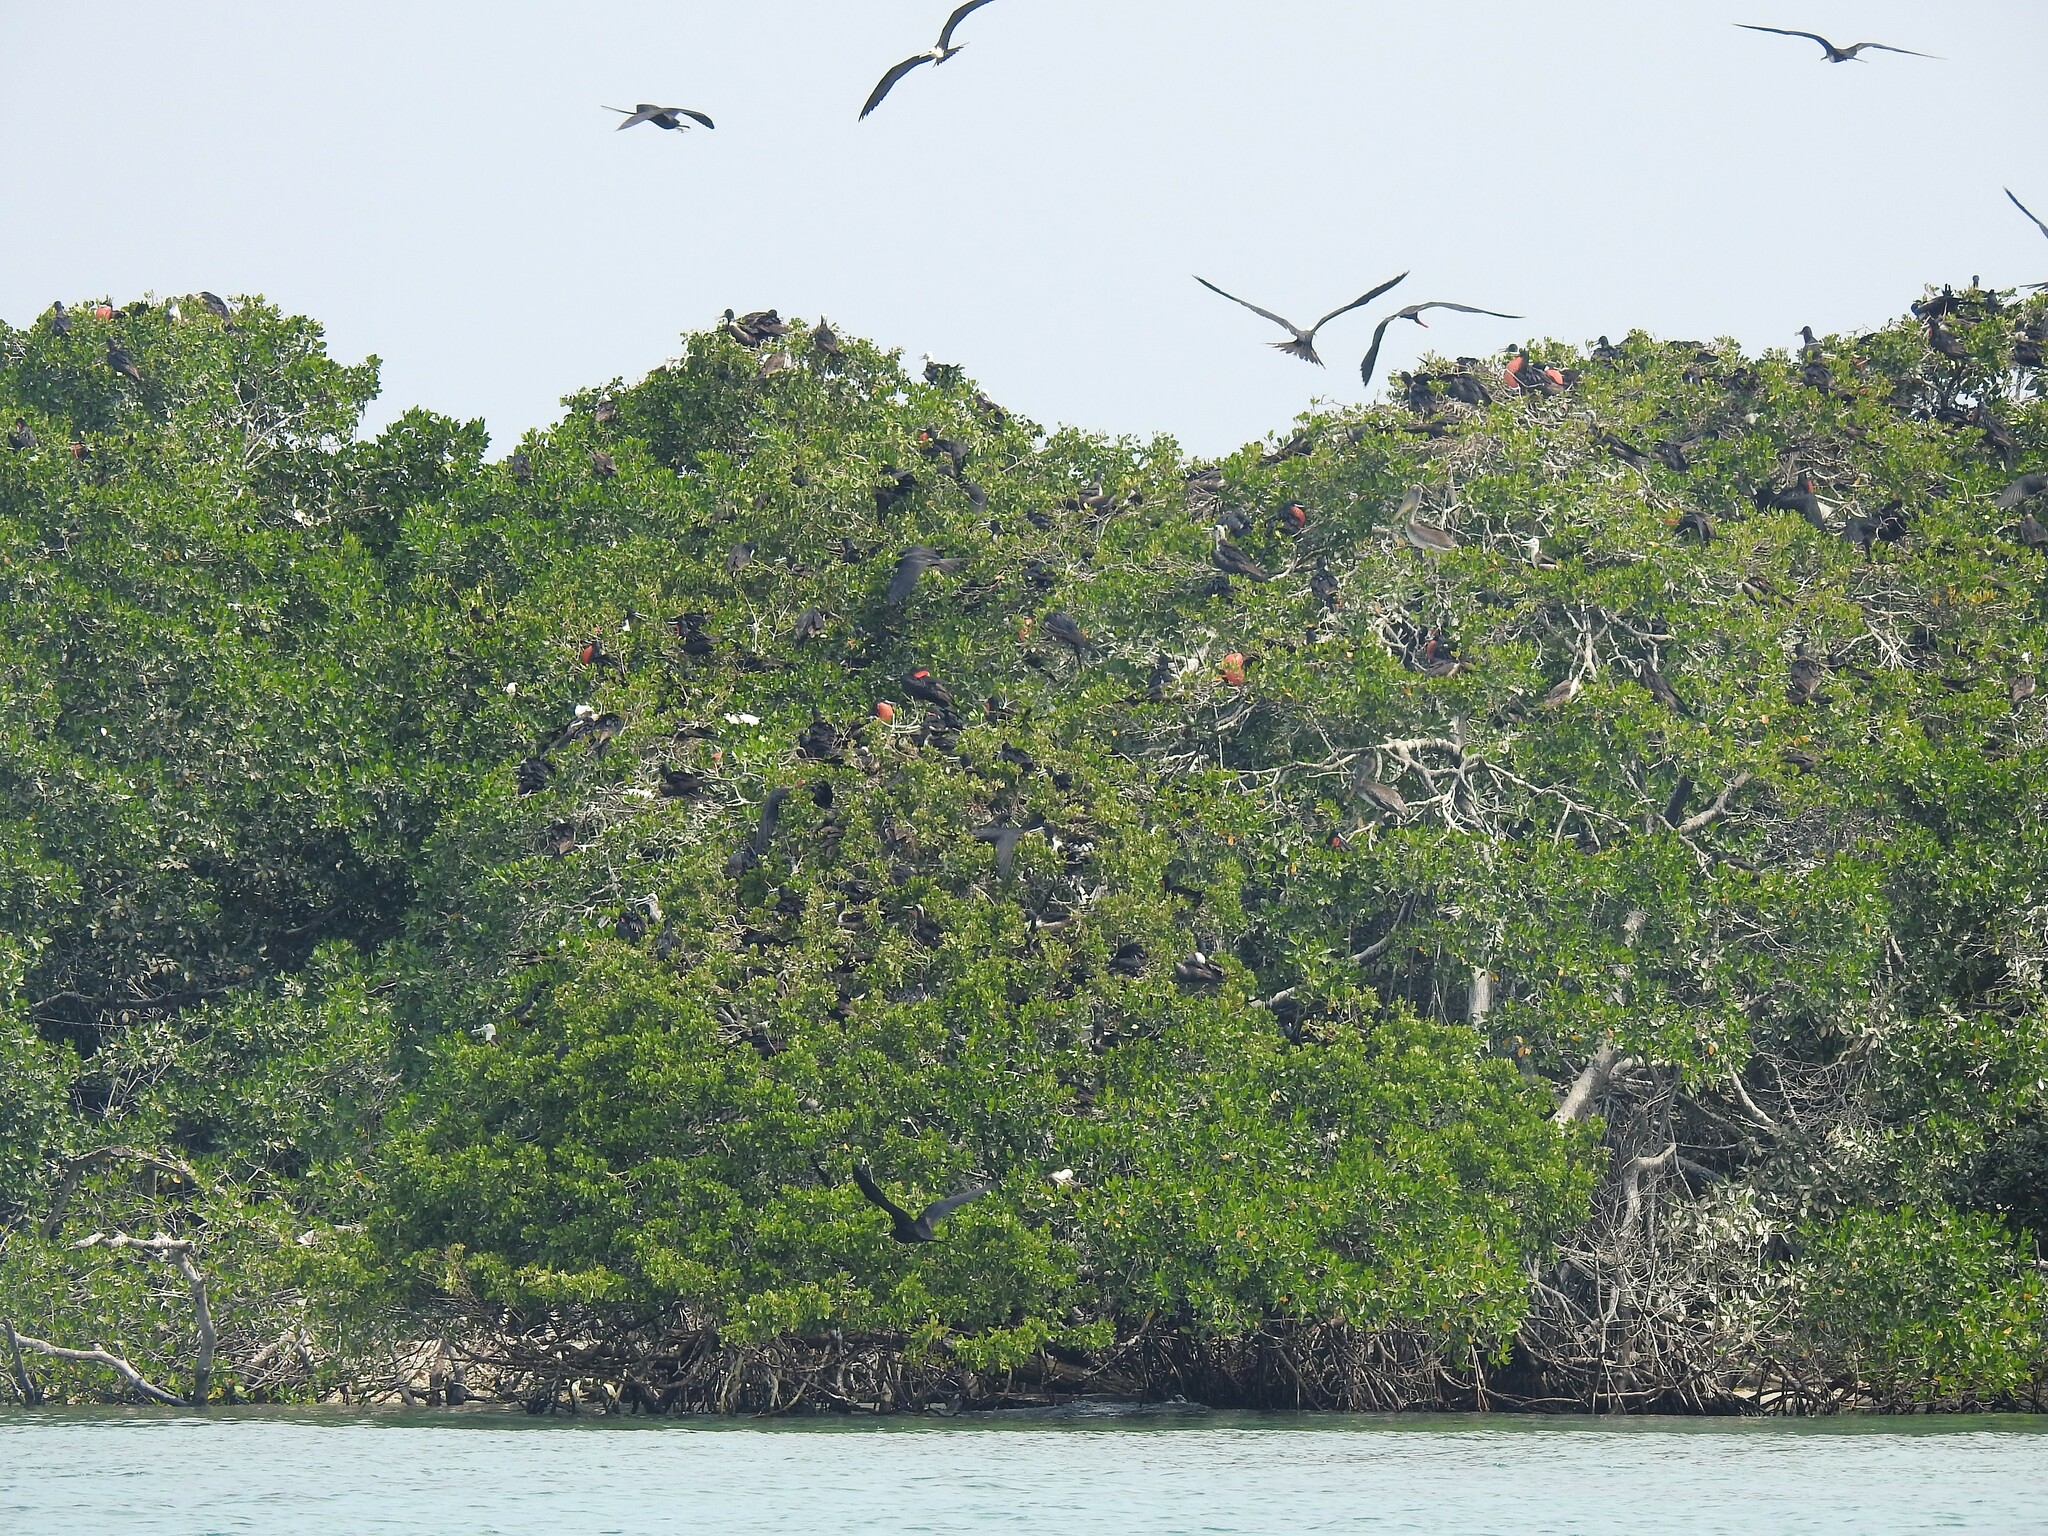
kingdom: Animalia
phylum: Chordata
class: Aves
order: Suliformes
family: Fregatidae
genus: Fregata
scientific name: Fregata magnificens
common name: Magnificent frigatebird
